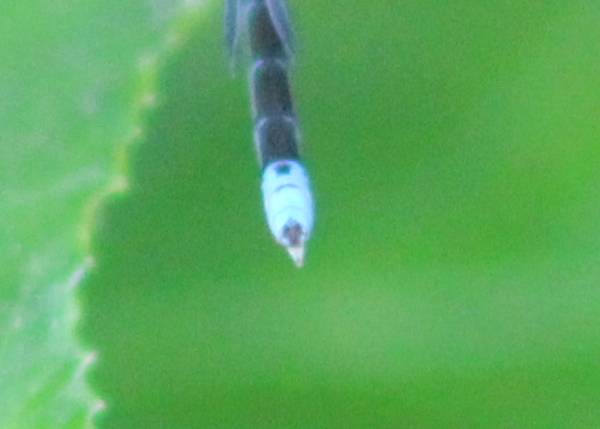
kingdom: Animalia
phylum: Arthropoda
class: Insecta
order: Odonata
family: Coenagrionidae
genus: Enallagma
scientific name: Enallagma traviatum
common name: Slender bluet
